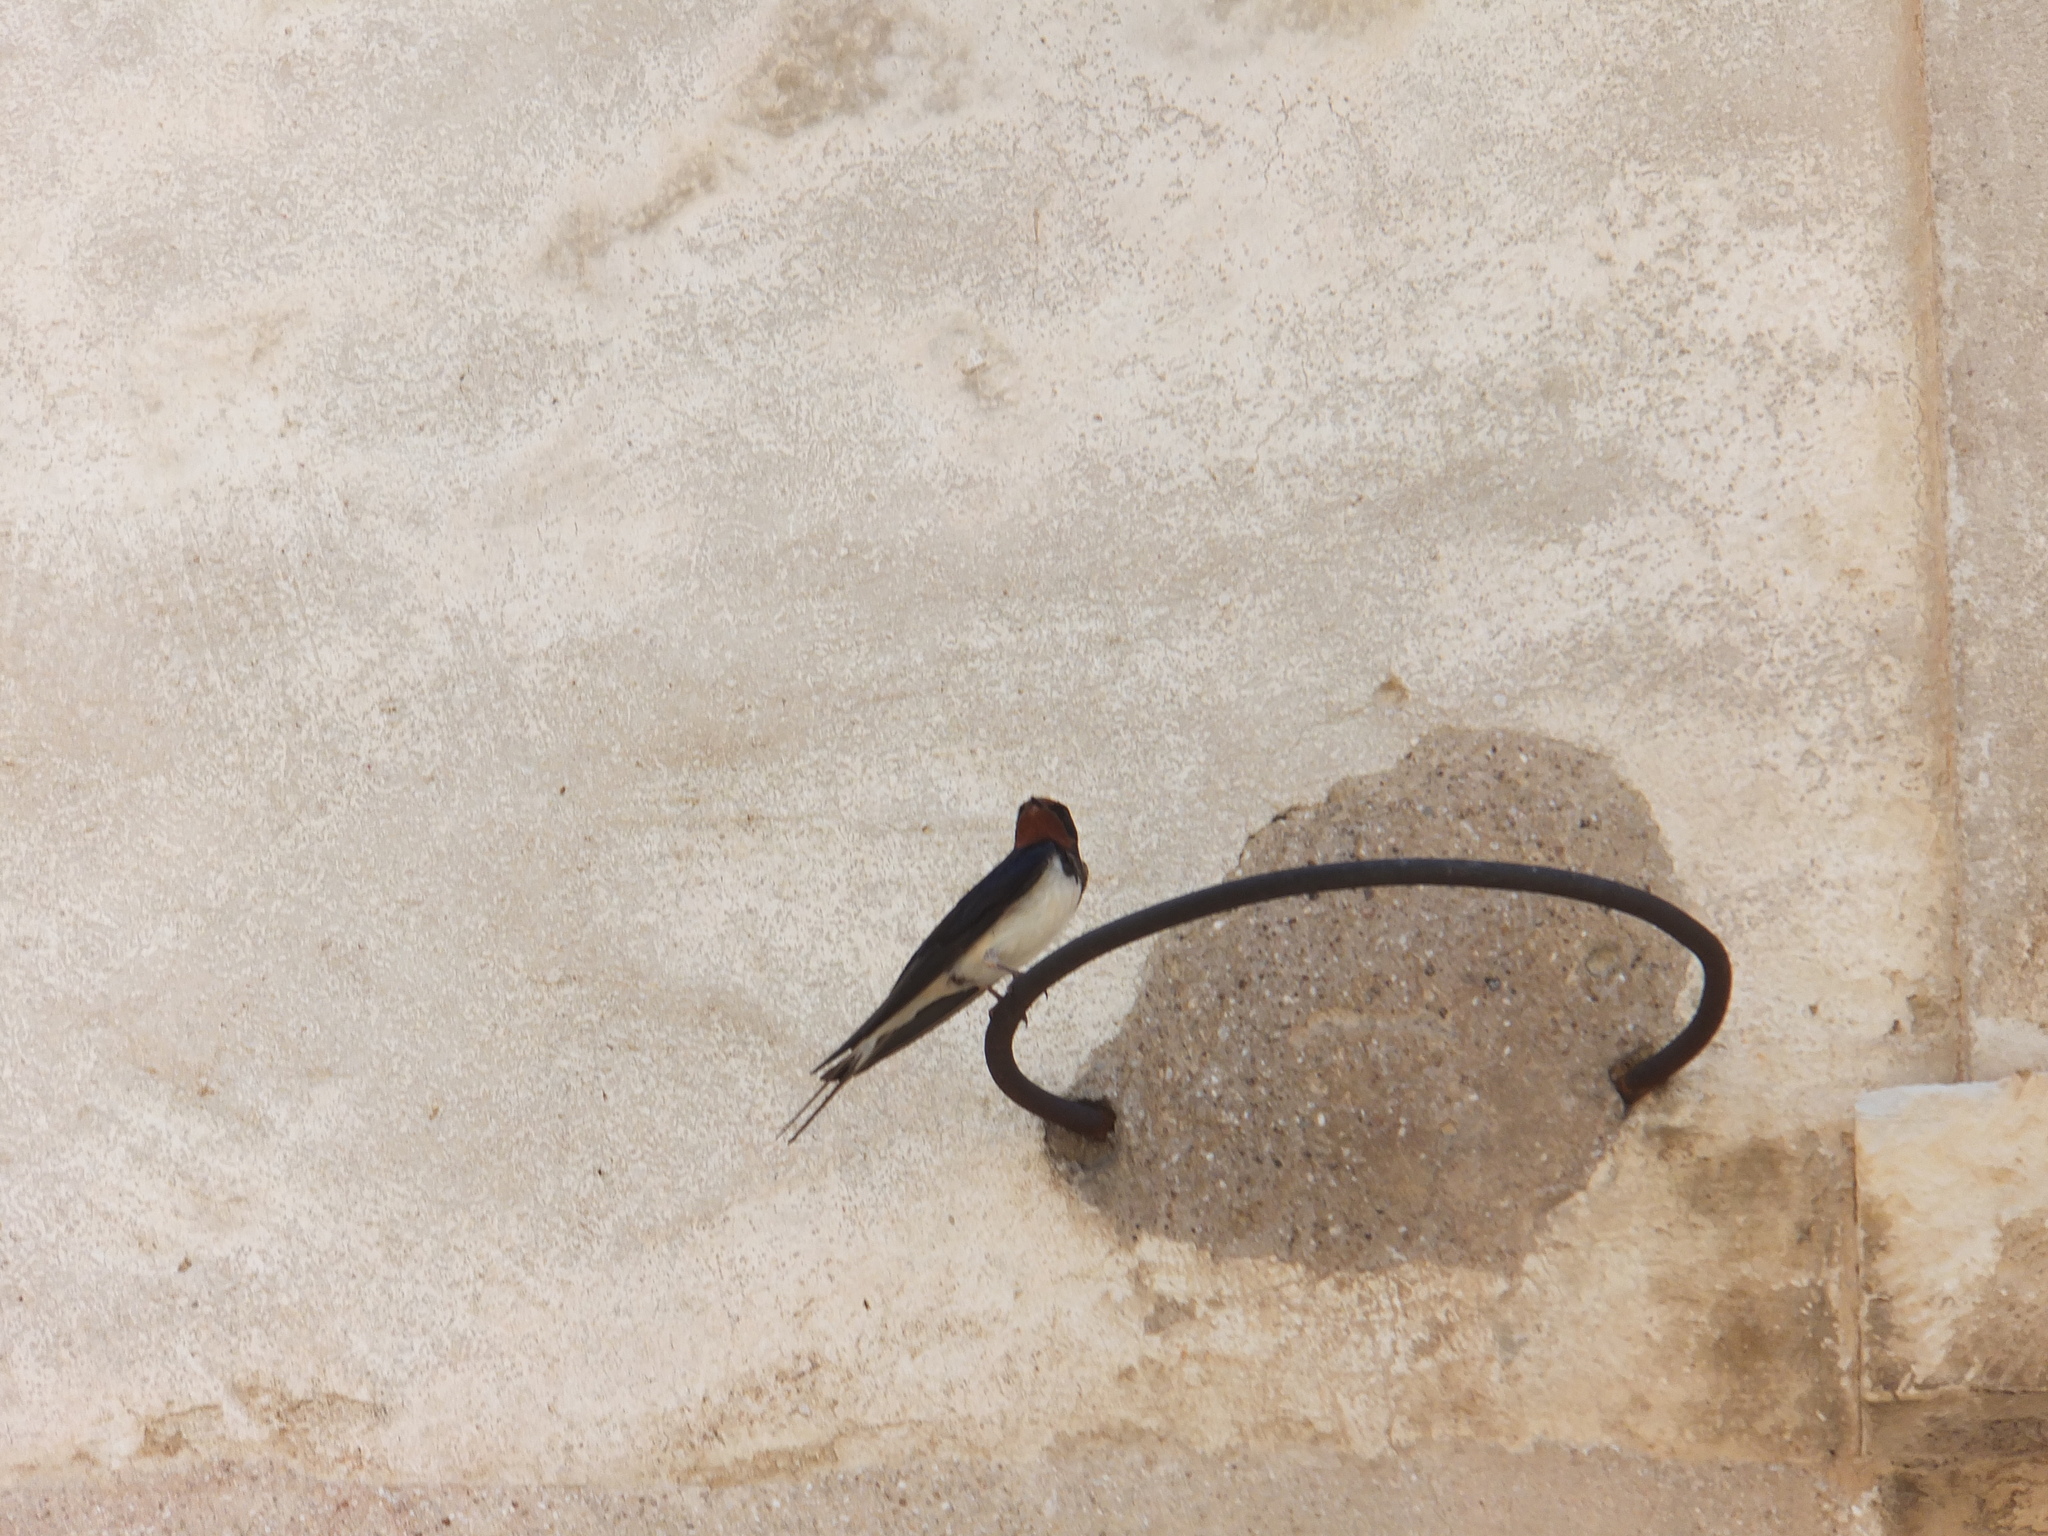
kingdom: Animalia
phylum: Chordata
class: Aves
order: Passeriformes
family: Hirundinidae
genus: Hirundo
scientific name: Hirundo rustica
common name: Barn swallow
